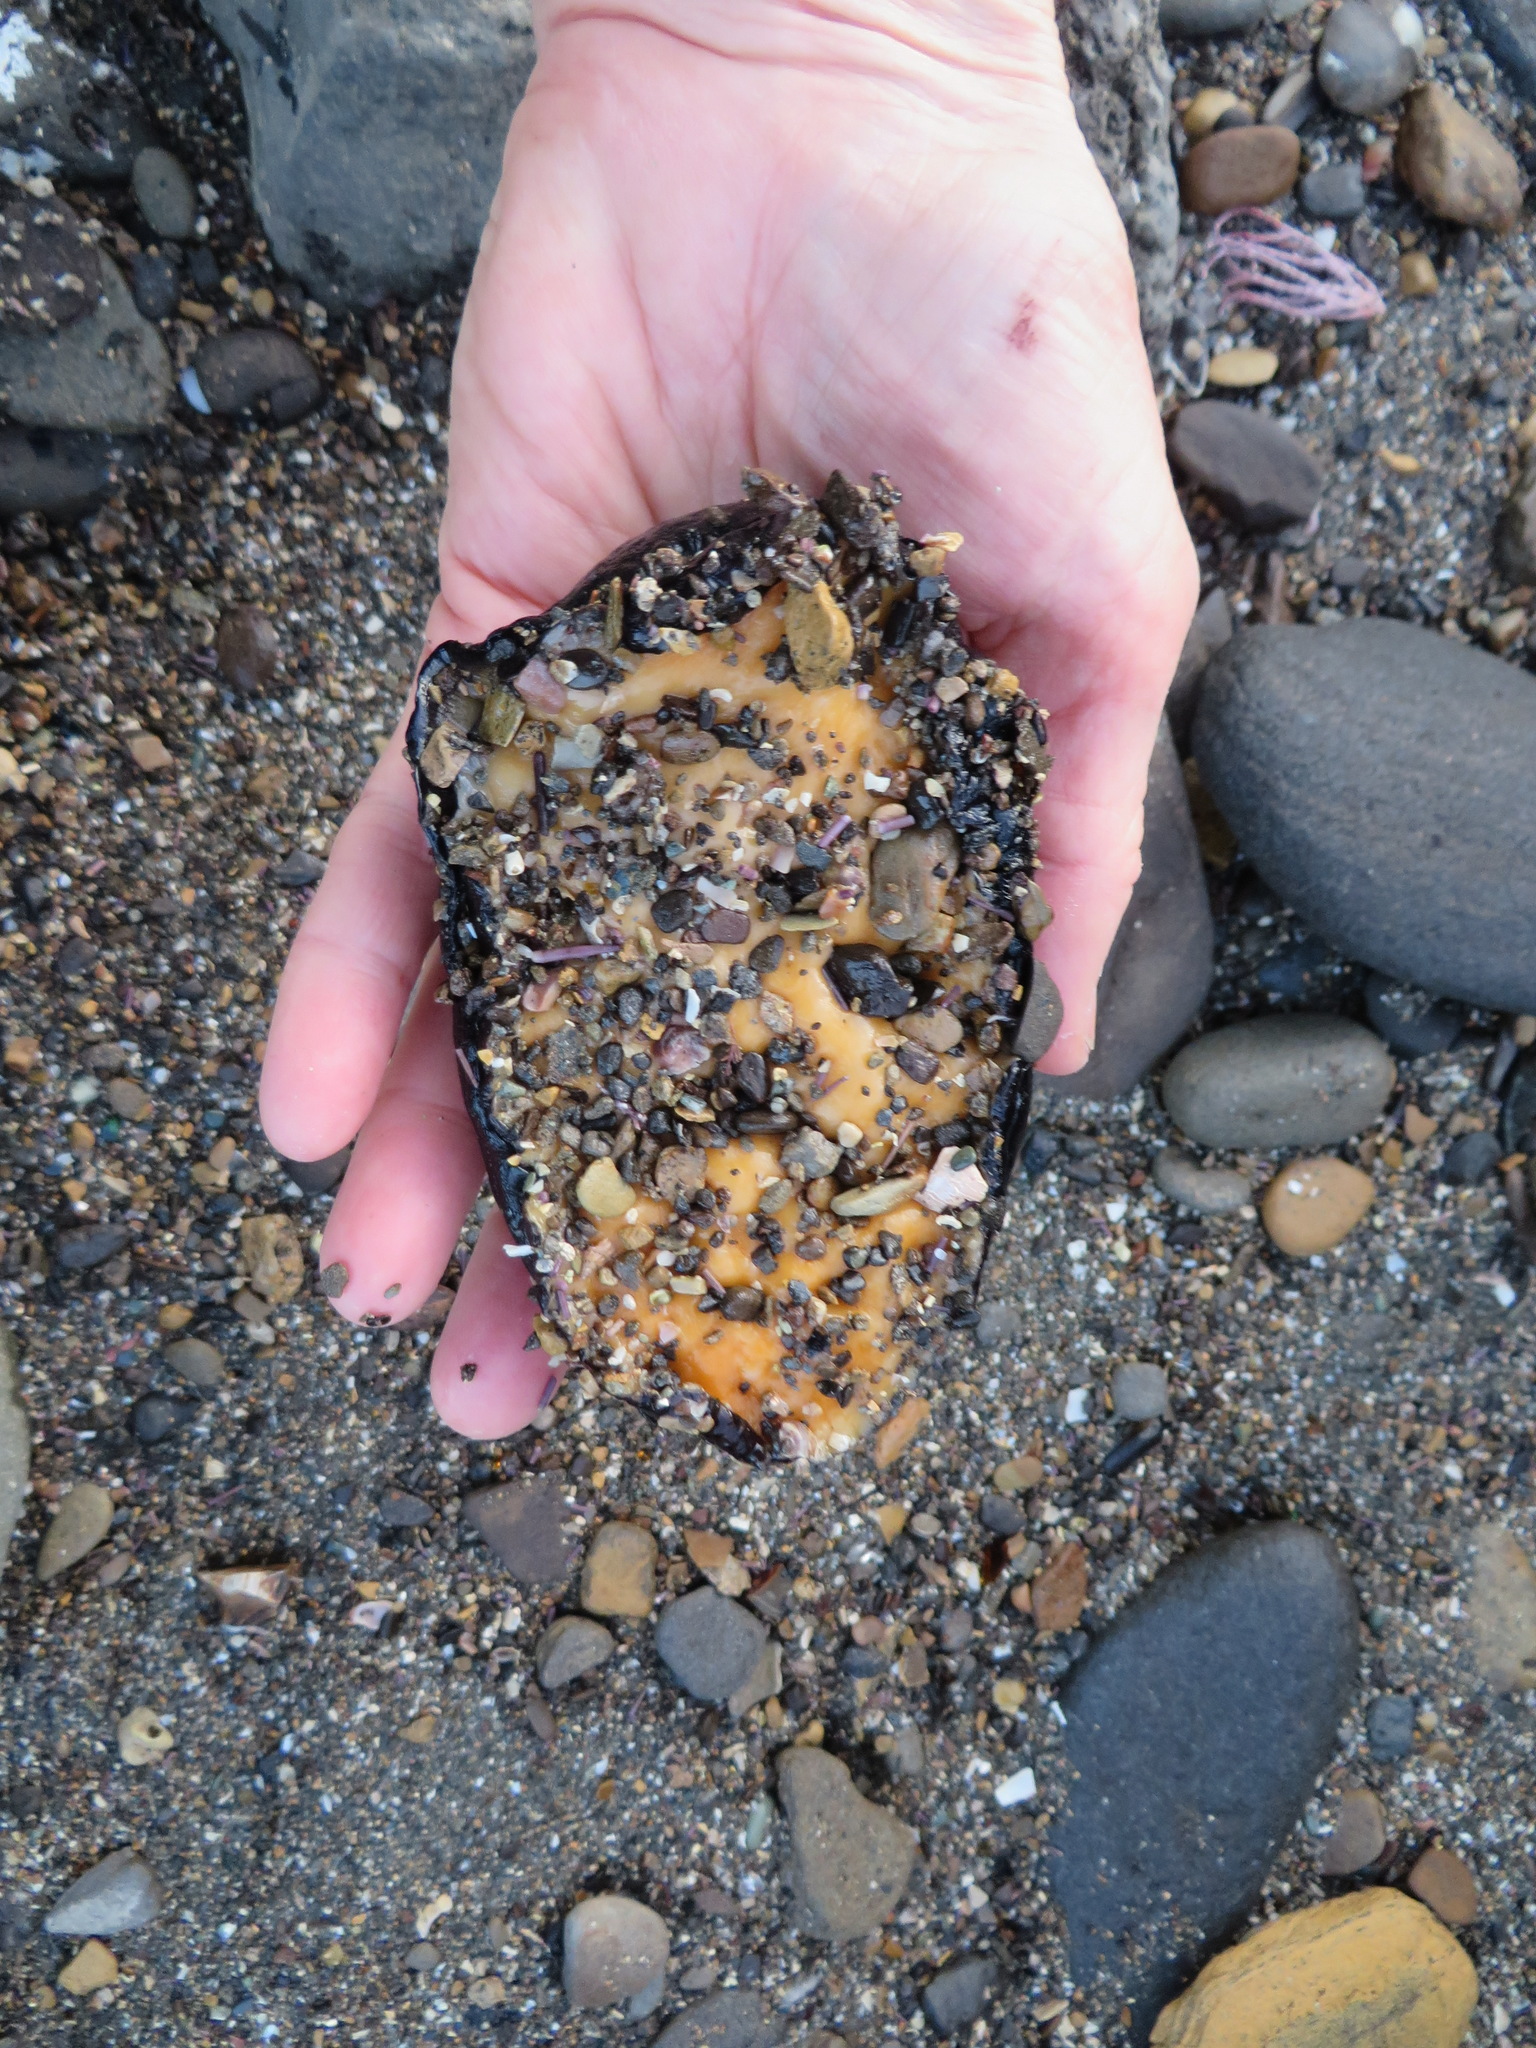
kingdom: Animalia
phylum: Mollusca
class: Gastropoda
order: Lepetellida
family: Fissurellidae
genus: Megathura
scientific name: Megathura crenulata
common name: Giant keyhole limpet
